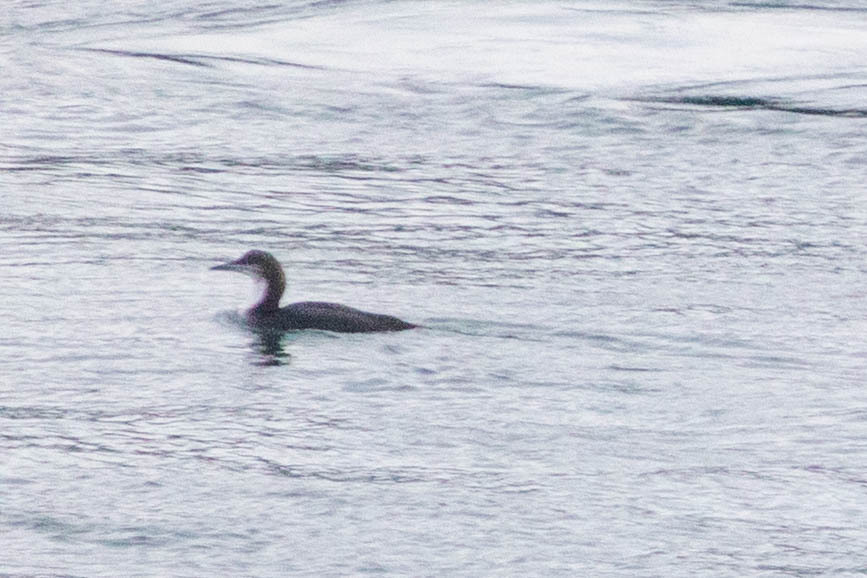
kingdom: Animalia
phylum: Chordata
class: Aves
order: Gaviiformes
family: Gaviidae
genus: Gavia
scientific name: Gavia pacifica
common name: Pacific loon
